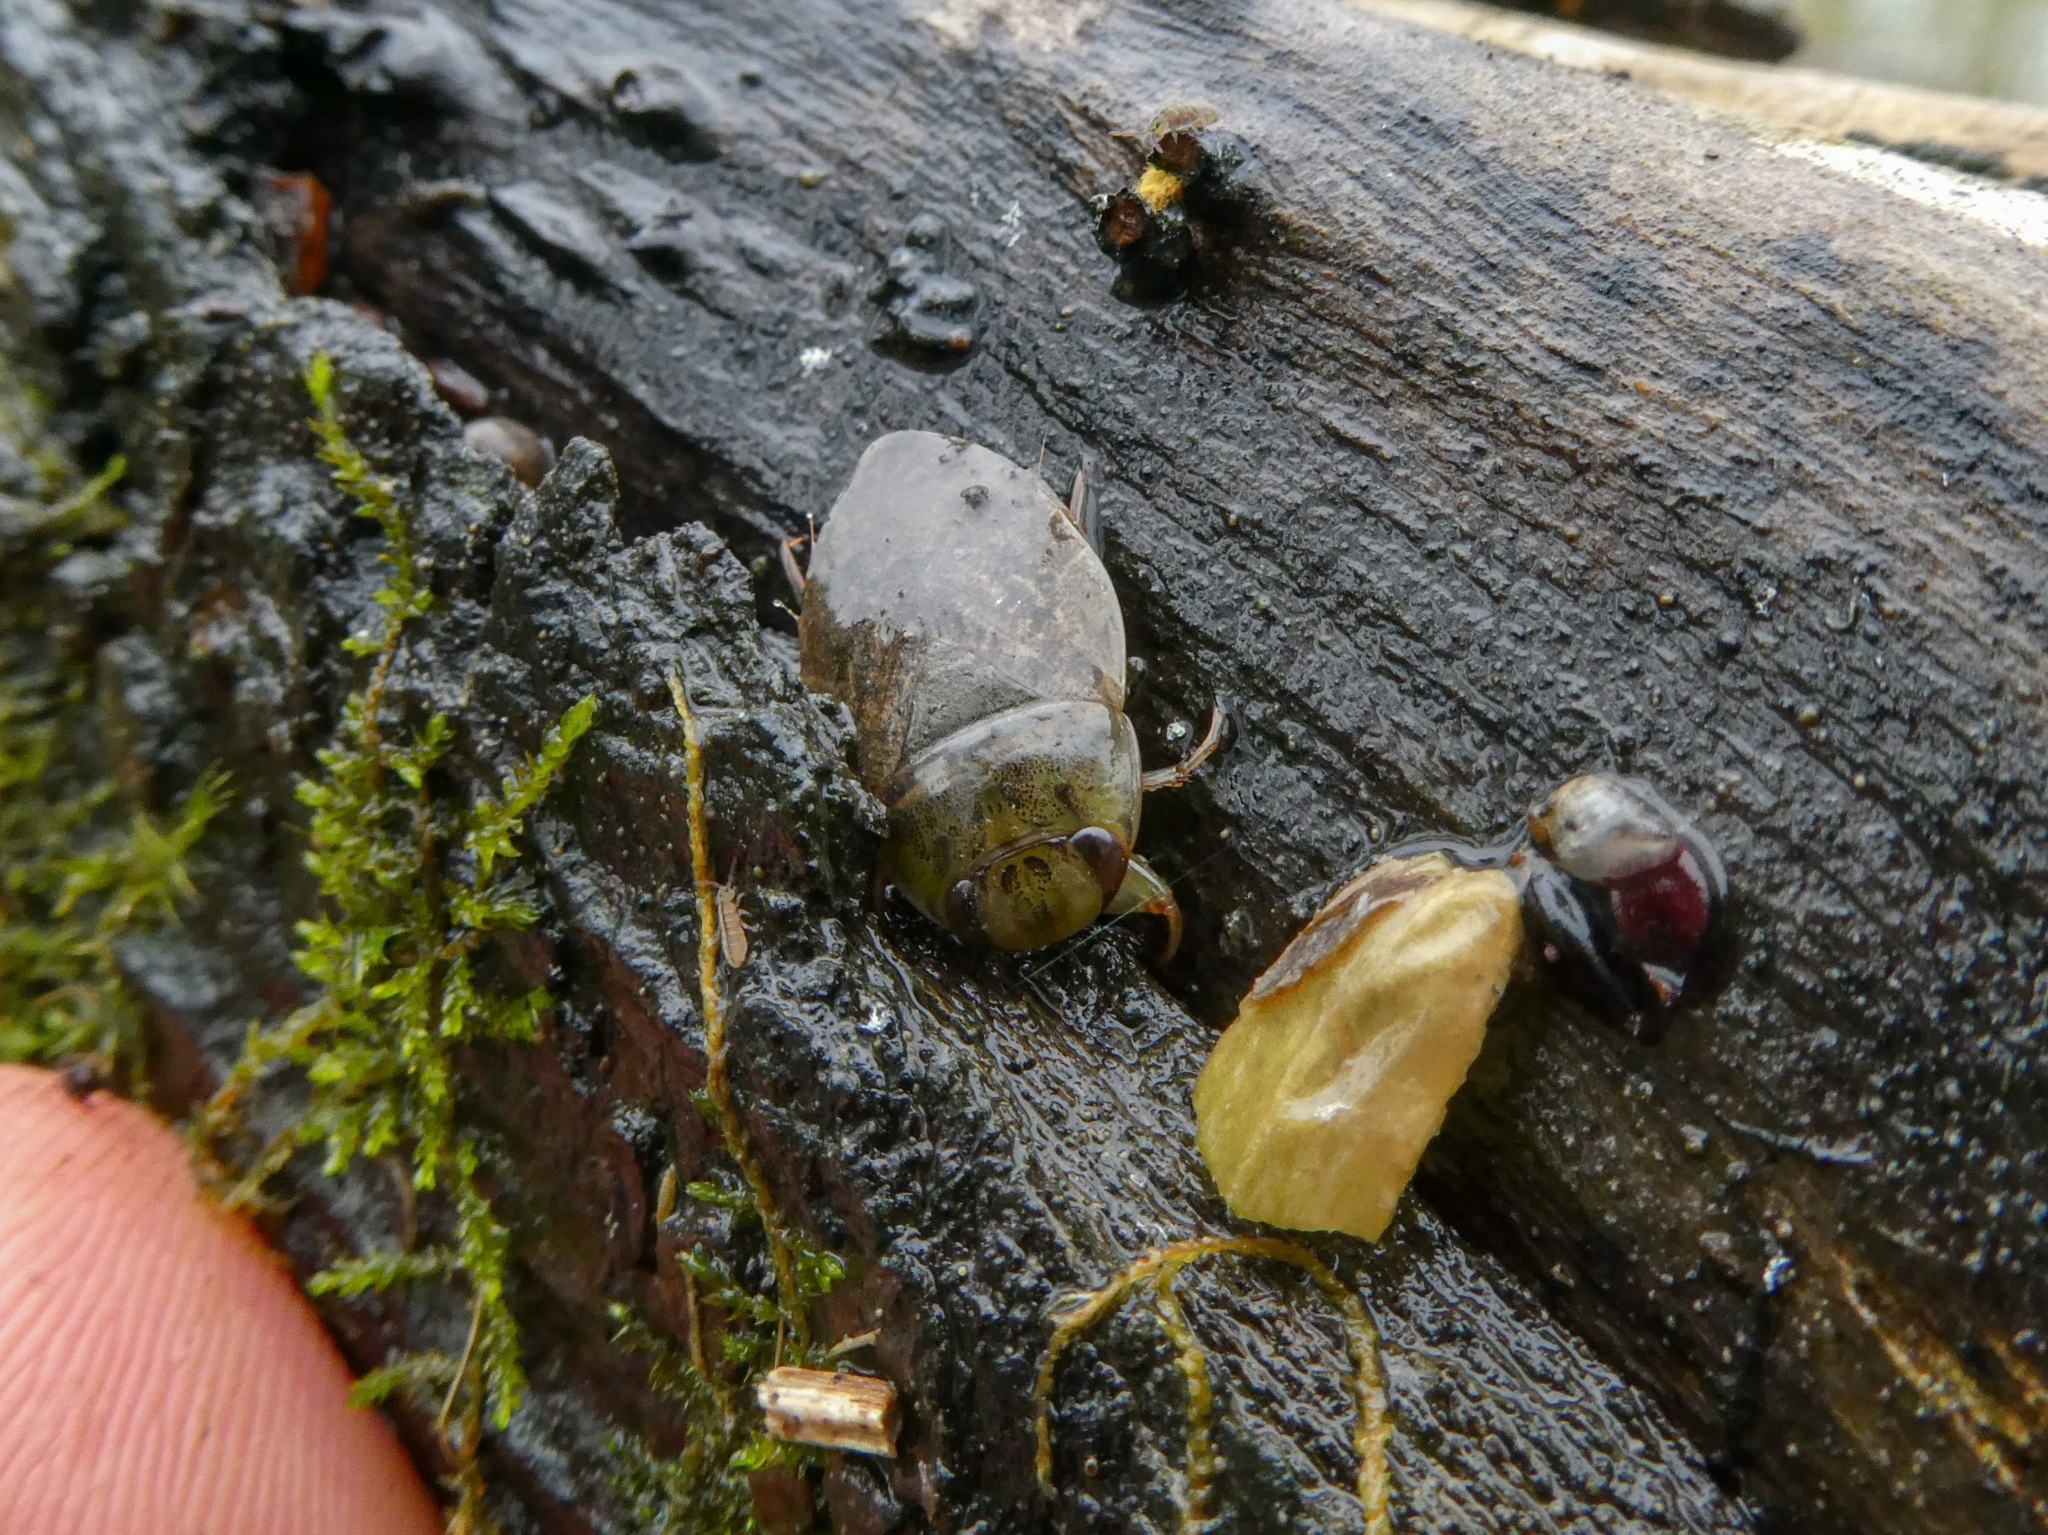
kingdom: Animalia
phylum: Arthropoda
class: Insecta
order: Hemiptera
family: Naucoridae
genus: Ilyocoris
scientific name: Ilyocoris cimicoides
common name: Saucer bugs
